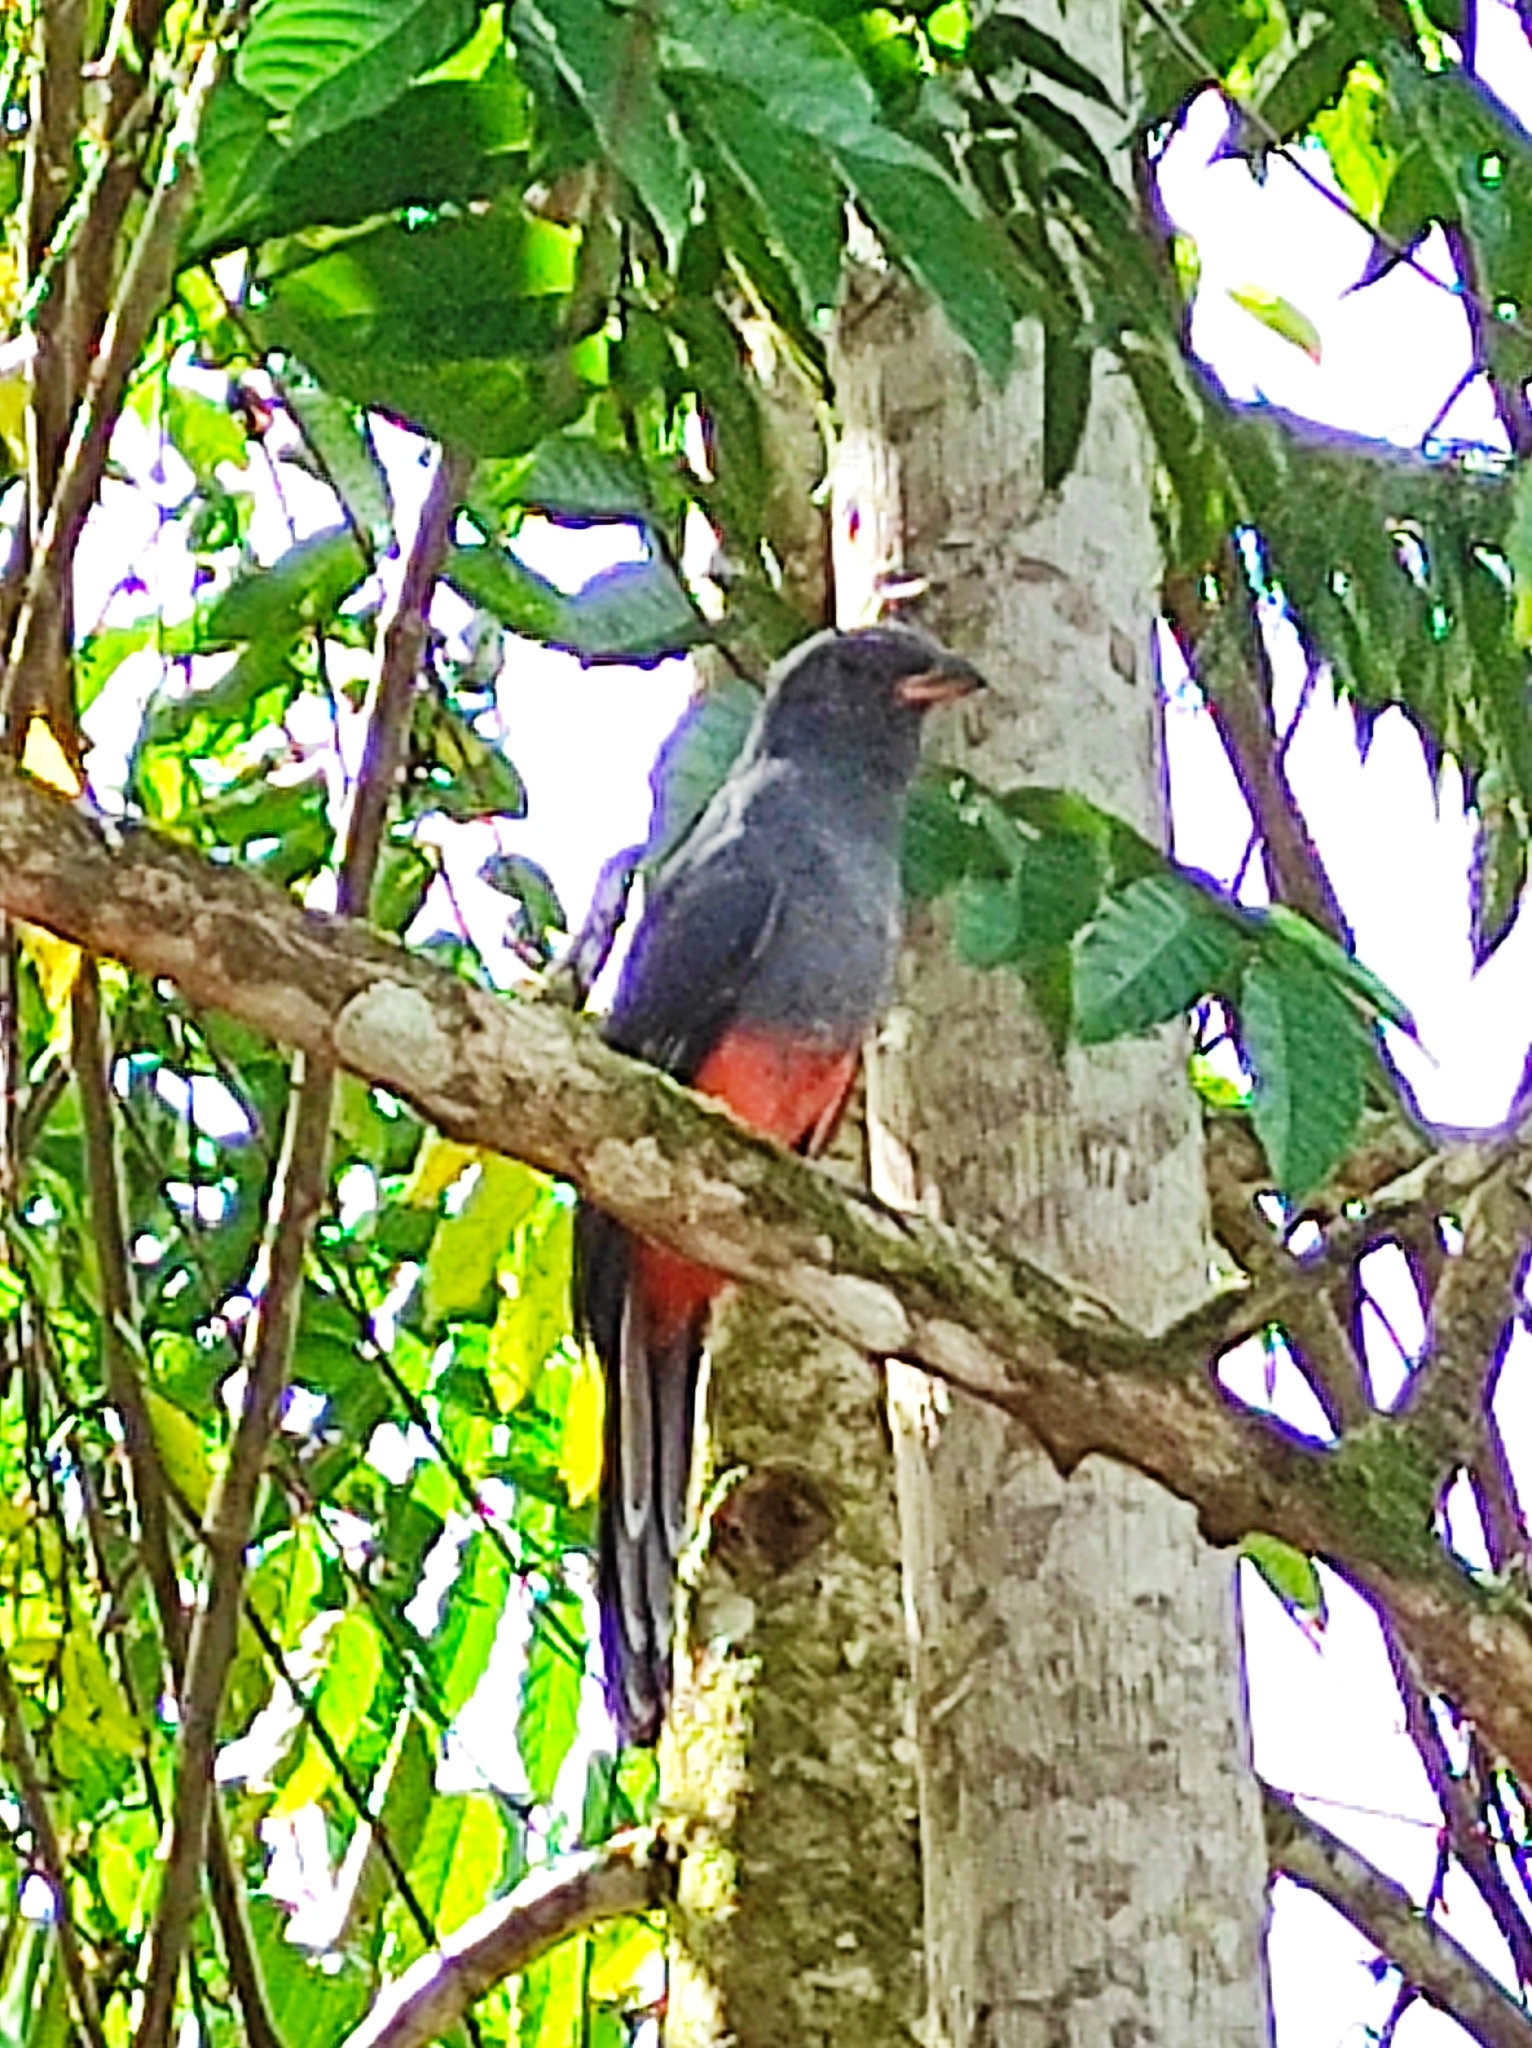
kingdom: Animalia
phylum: Chordata
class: Aves
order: Trogoniformes
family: Trogonidae
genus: Trogon
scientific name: Trogon massena
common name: Slaty-tailed trogon
